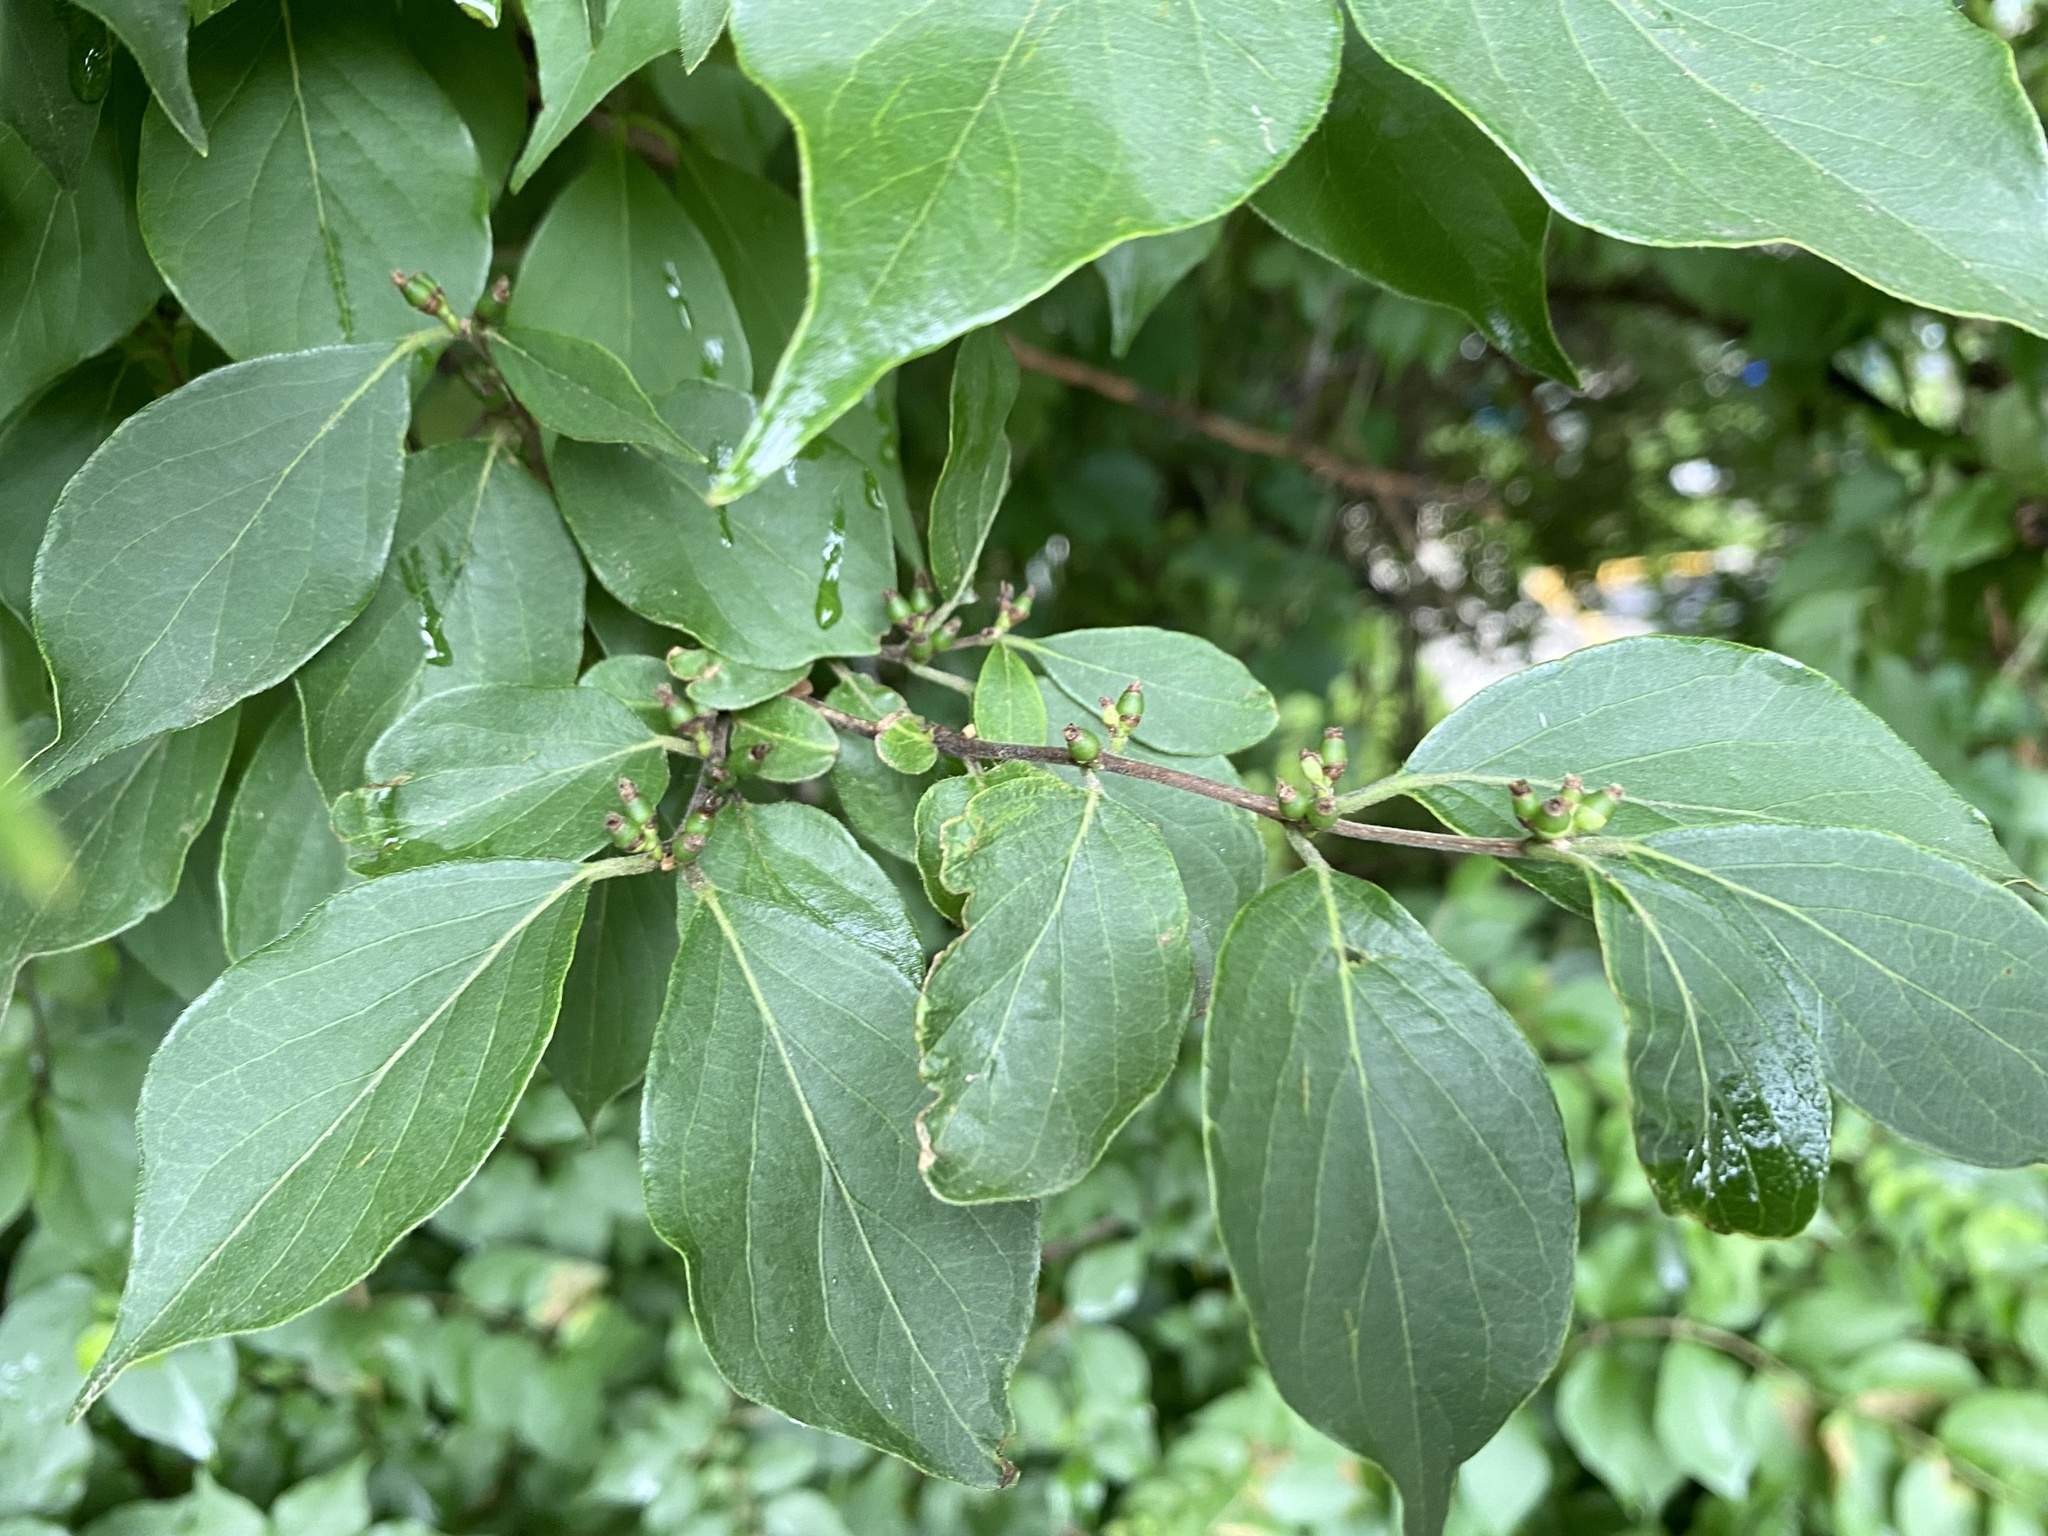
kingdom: Plantae
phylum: Tracheophyta
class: Magnoliopsida
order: Dipsacales
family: Caprifoliaceae
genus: Lonicera
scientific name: Lonicera maackii
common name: Amur honeysuckle
